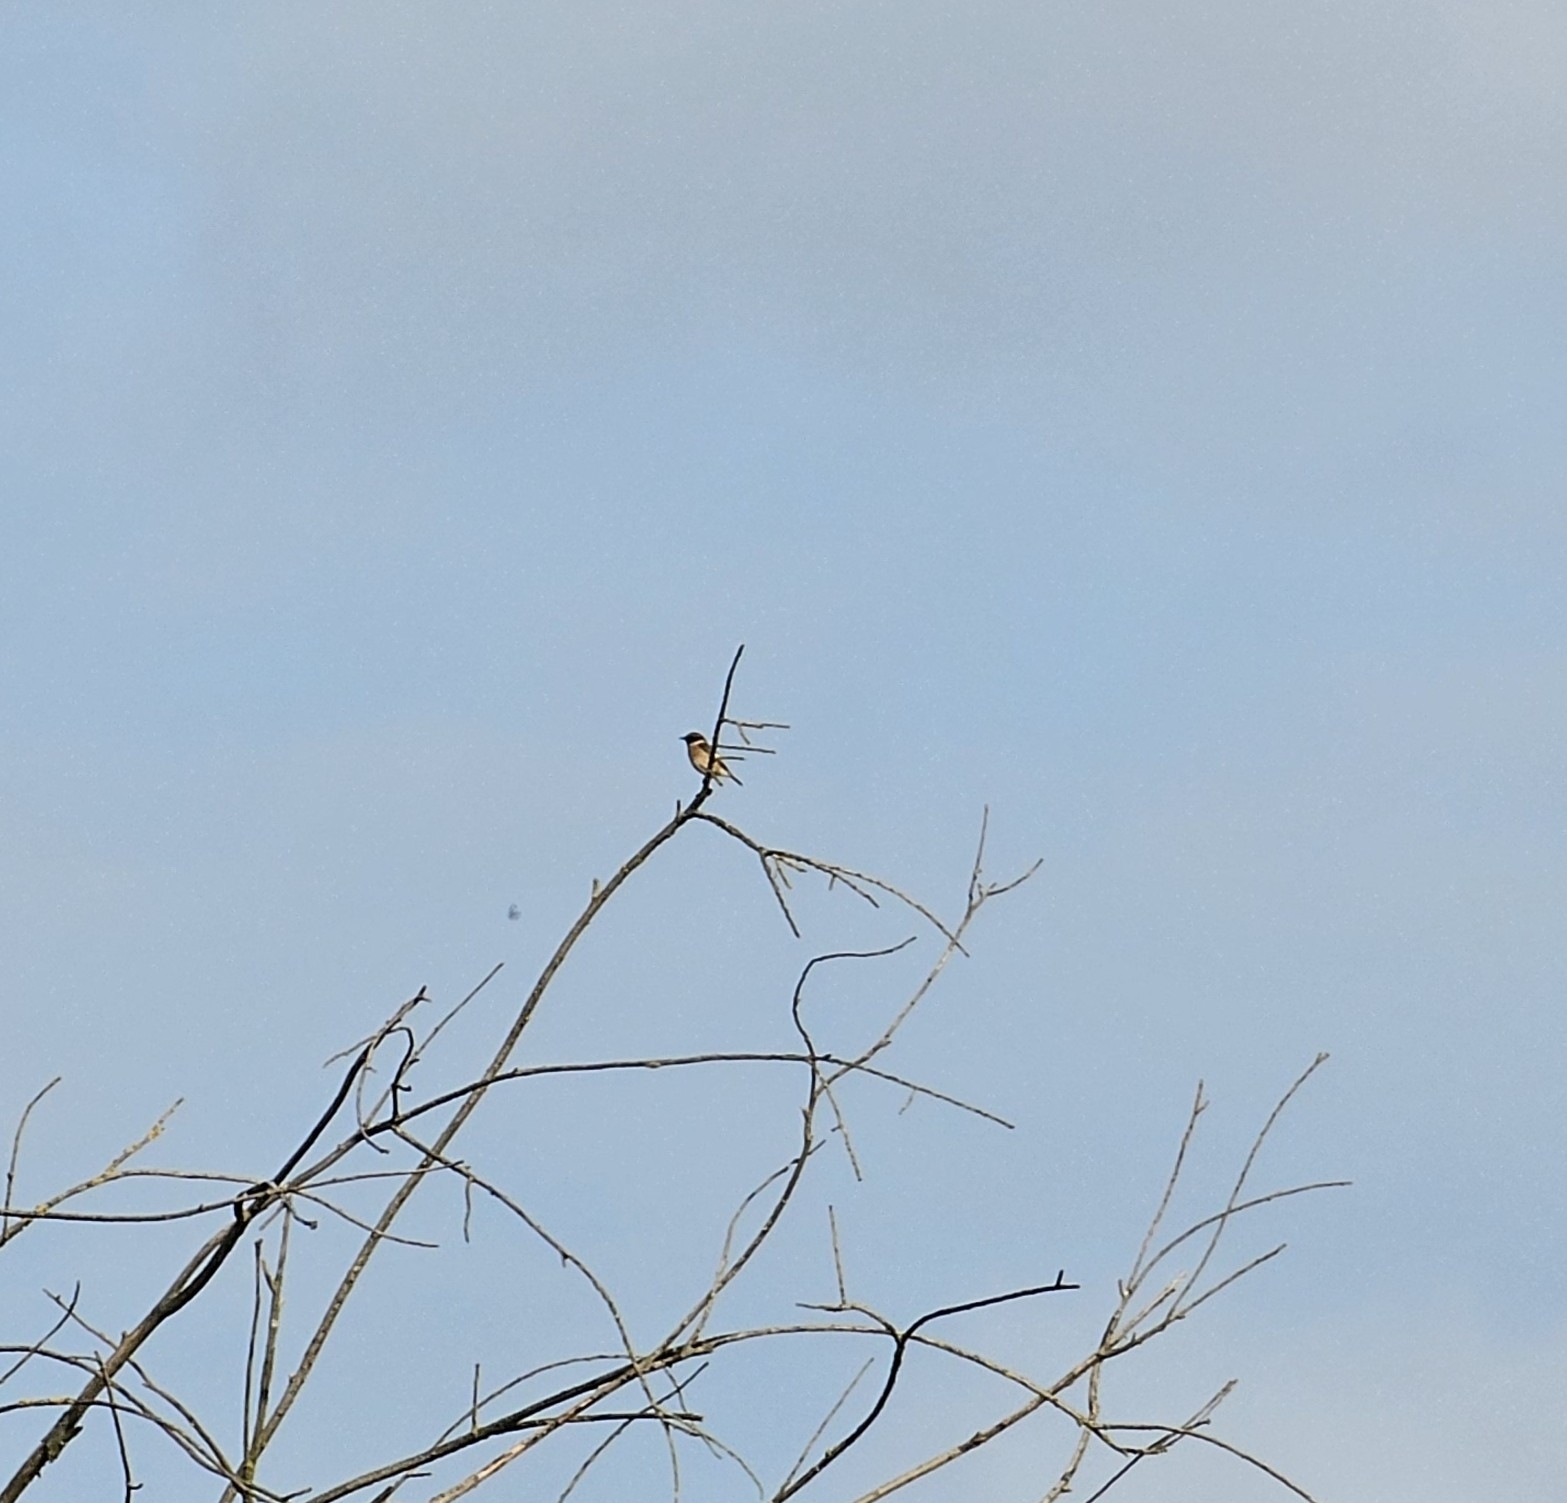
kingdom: Animalia
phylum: Chordata
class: Aves
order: Passeriformes
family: Muscicapidae
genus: Saxicola
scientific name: Saxicola rubicola
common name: European stonechat
